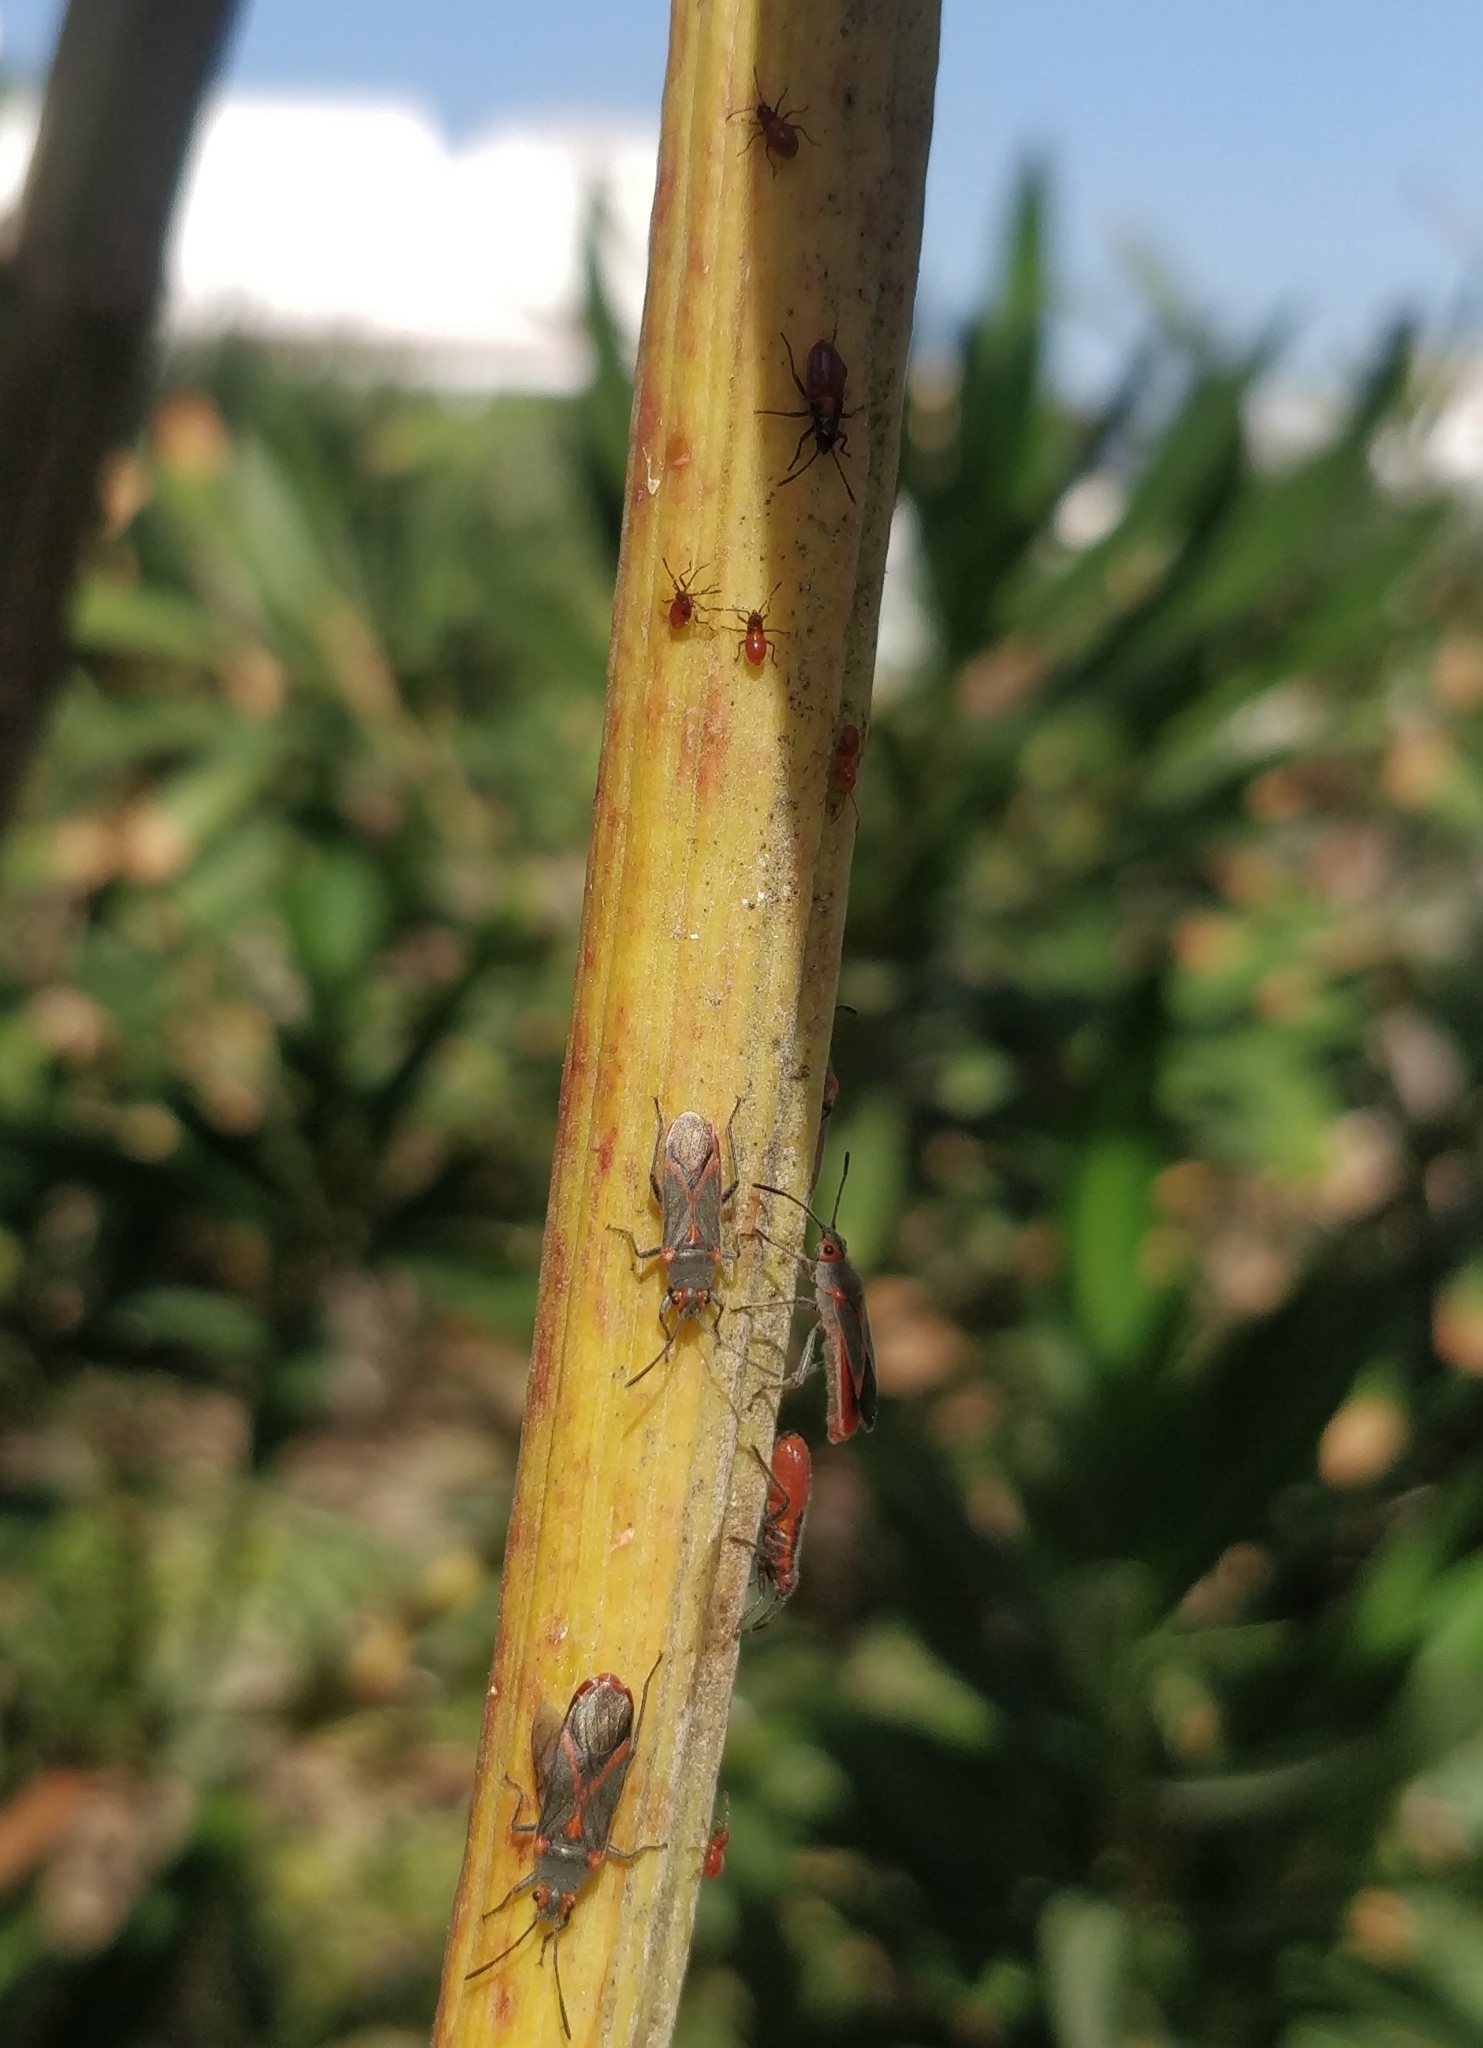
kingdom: Animalia
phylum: Arthropoda
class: Insecta
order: Hemiptera
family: Lygaeidae
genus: Caenocoris
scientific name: Caenocoris nerii
